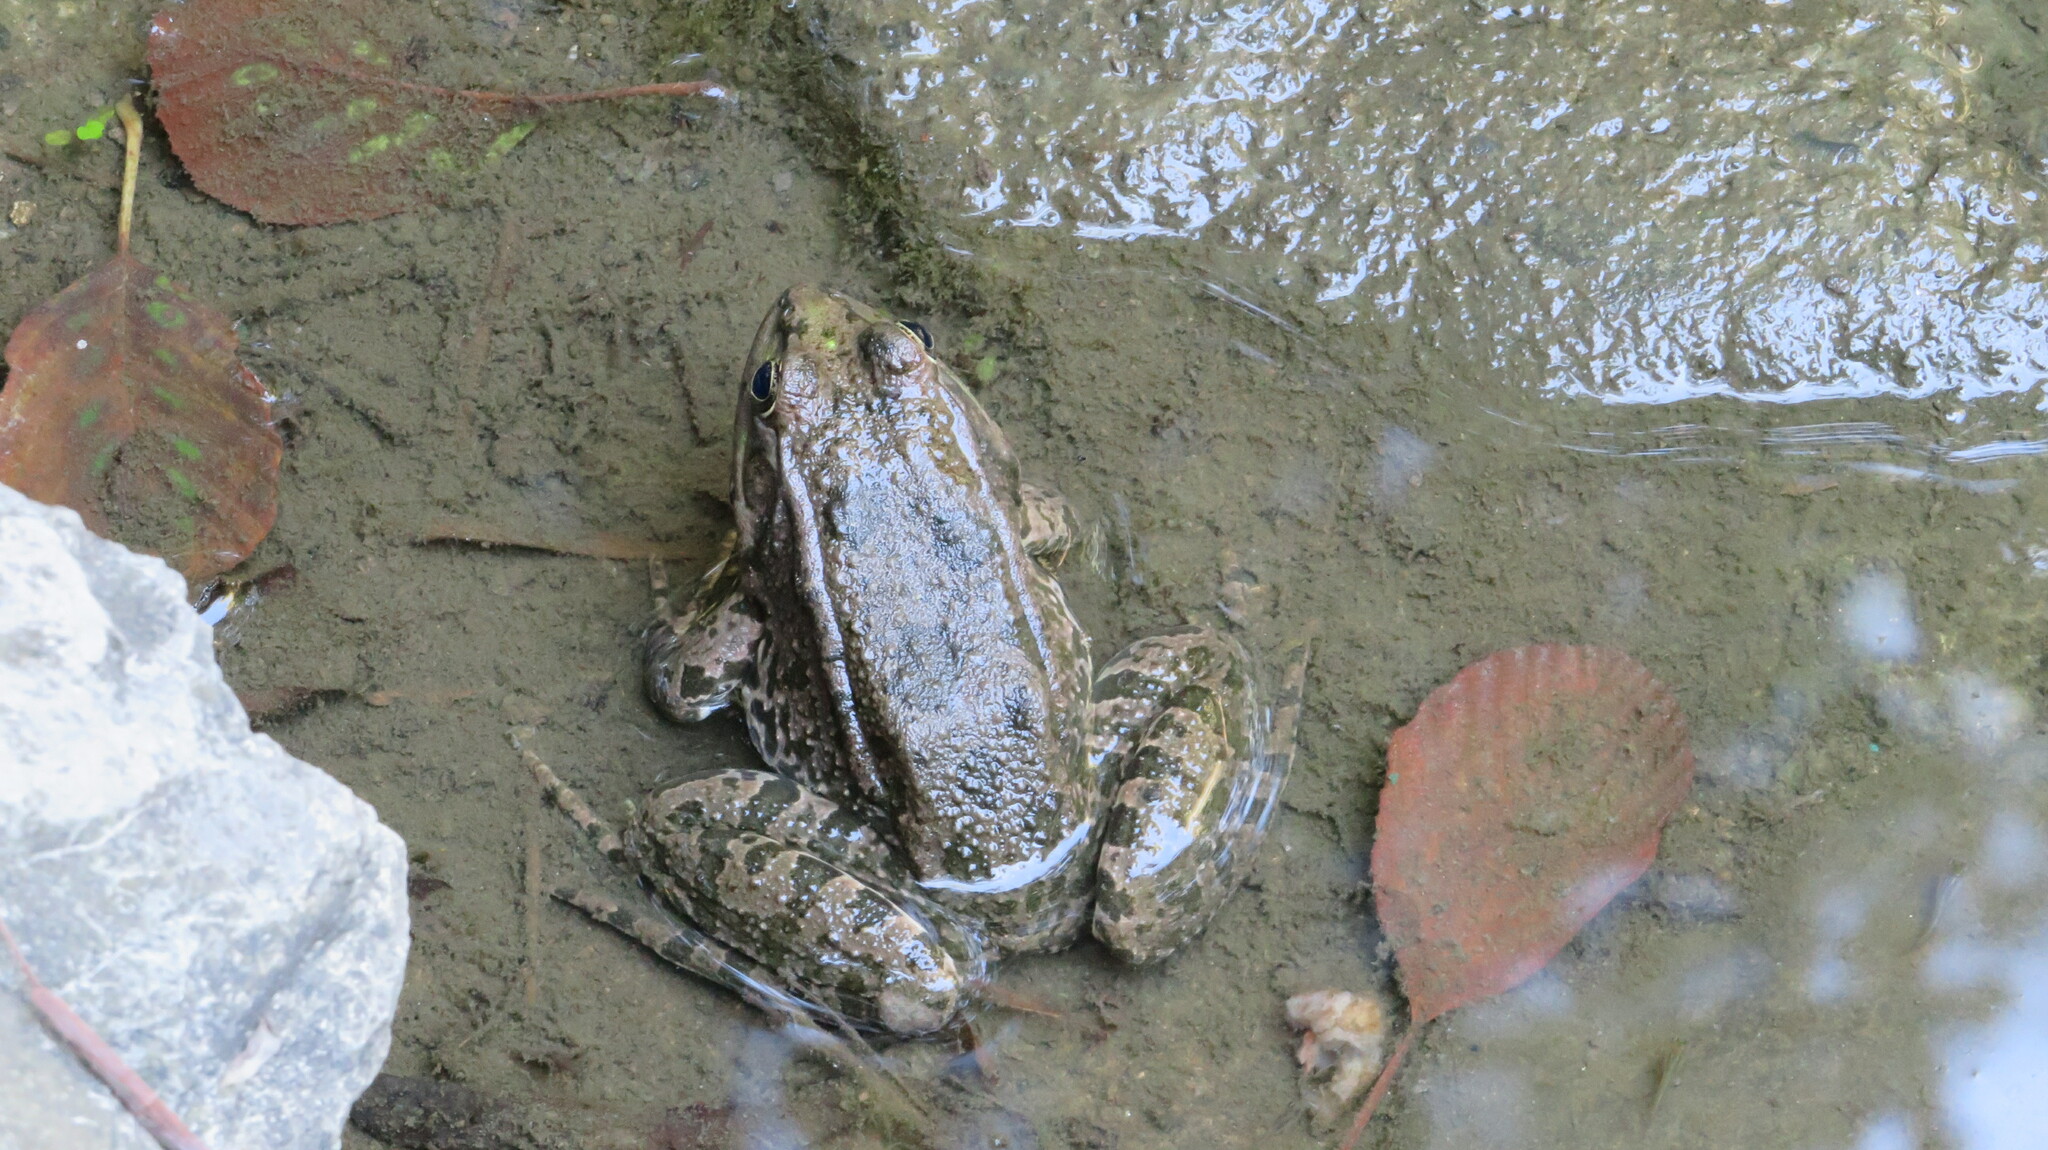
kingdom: Animalia
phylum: Chordata
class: Amphibia
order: Anura
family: Ranidae
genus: Pelophylax
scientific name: Pelophylax ridibundus
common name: Marsh frog
